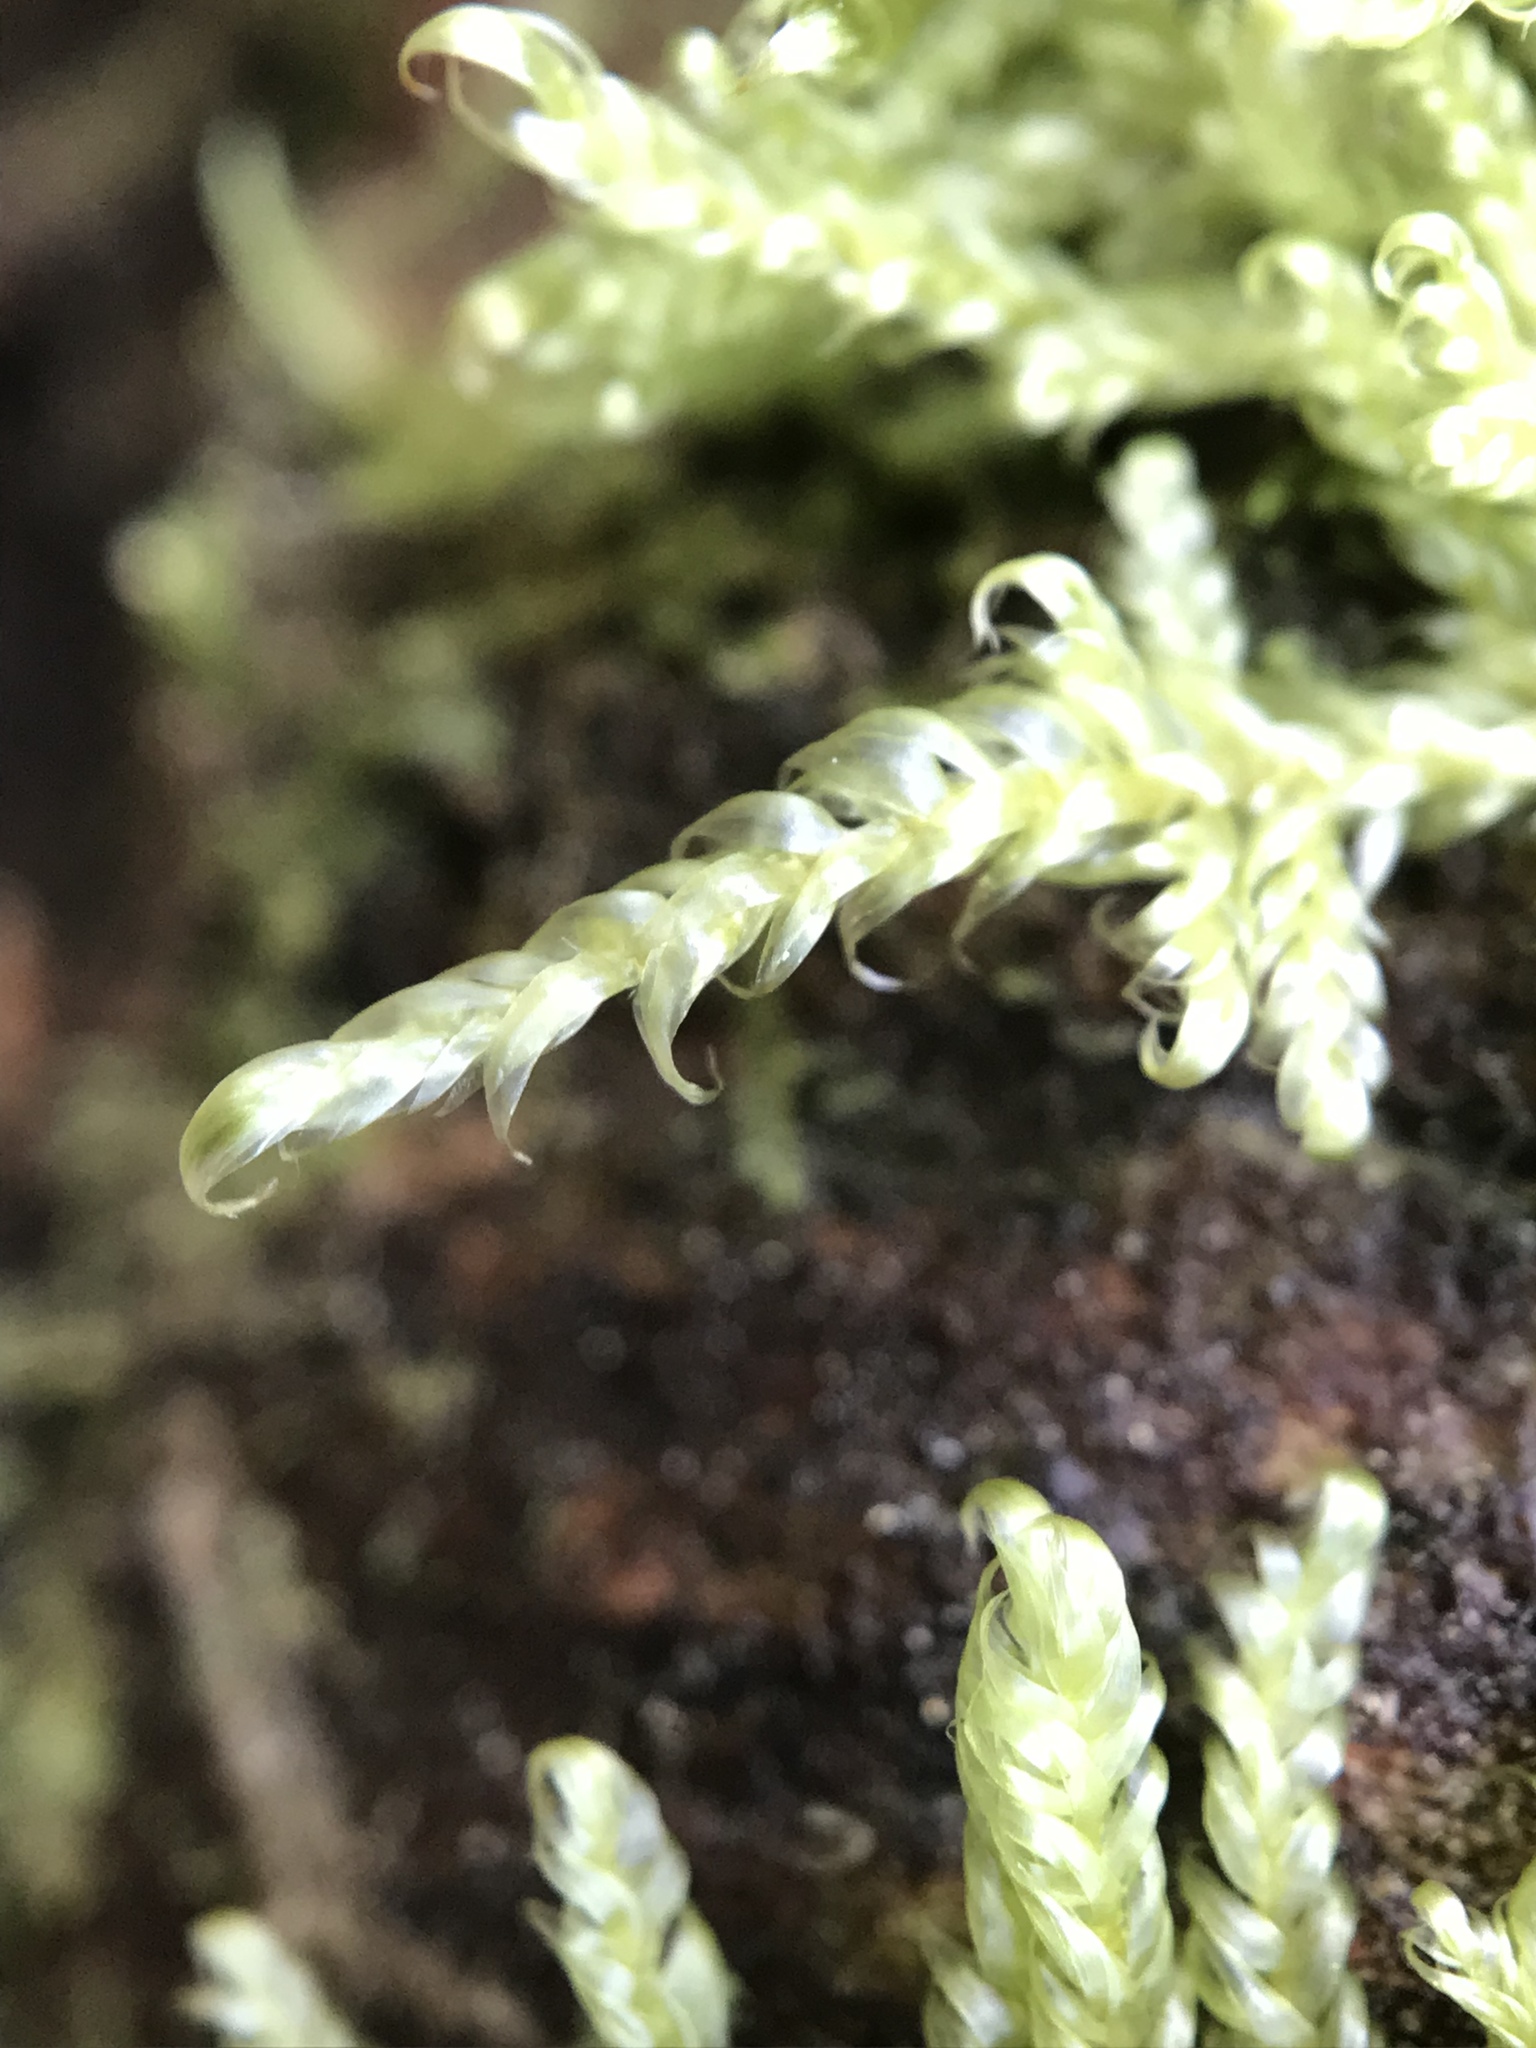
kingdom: Plantae
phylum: Bryophyta
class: Bryopsida
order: Hypnales
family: Hypnaceae
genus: Hypnum
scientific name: Hypnum jutlandicum
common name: Heath plait-moss
